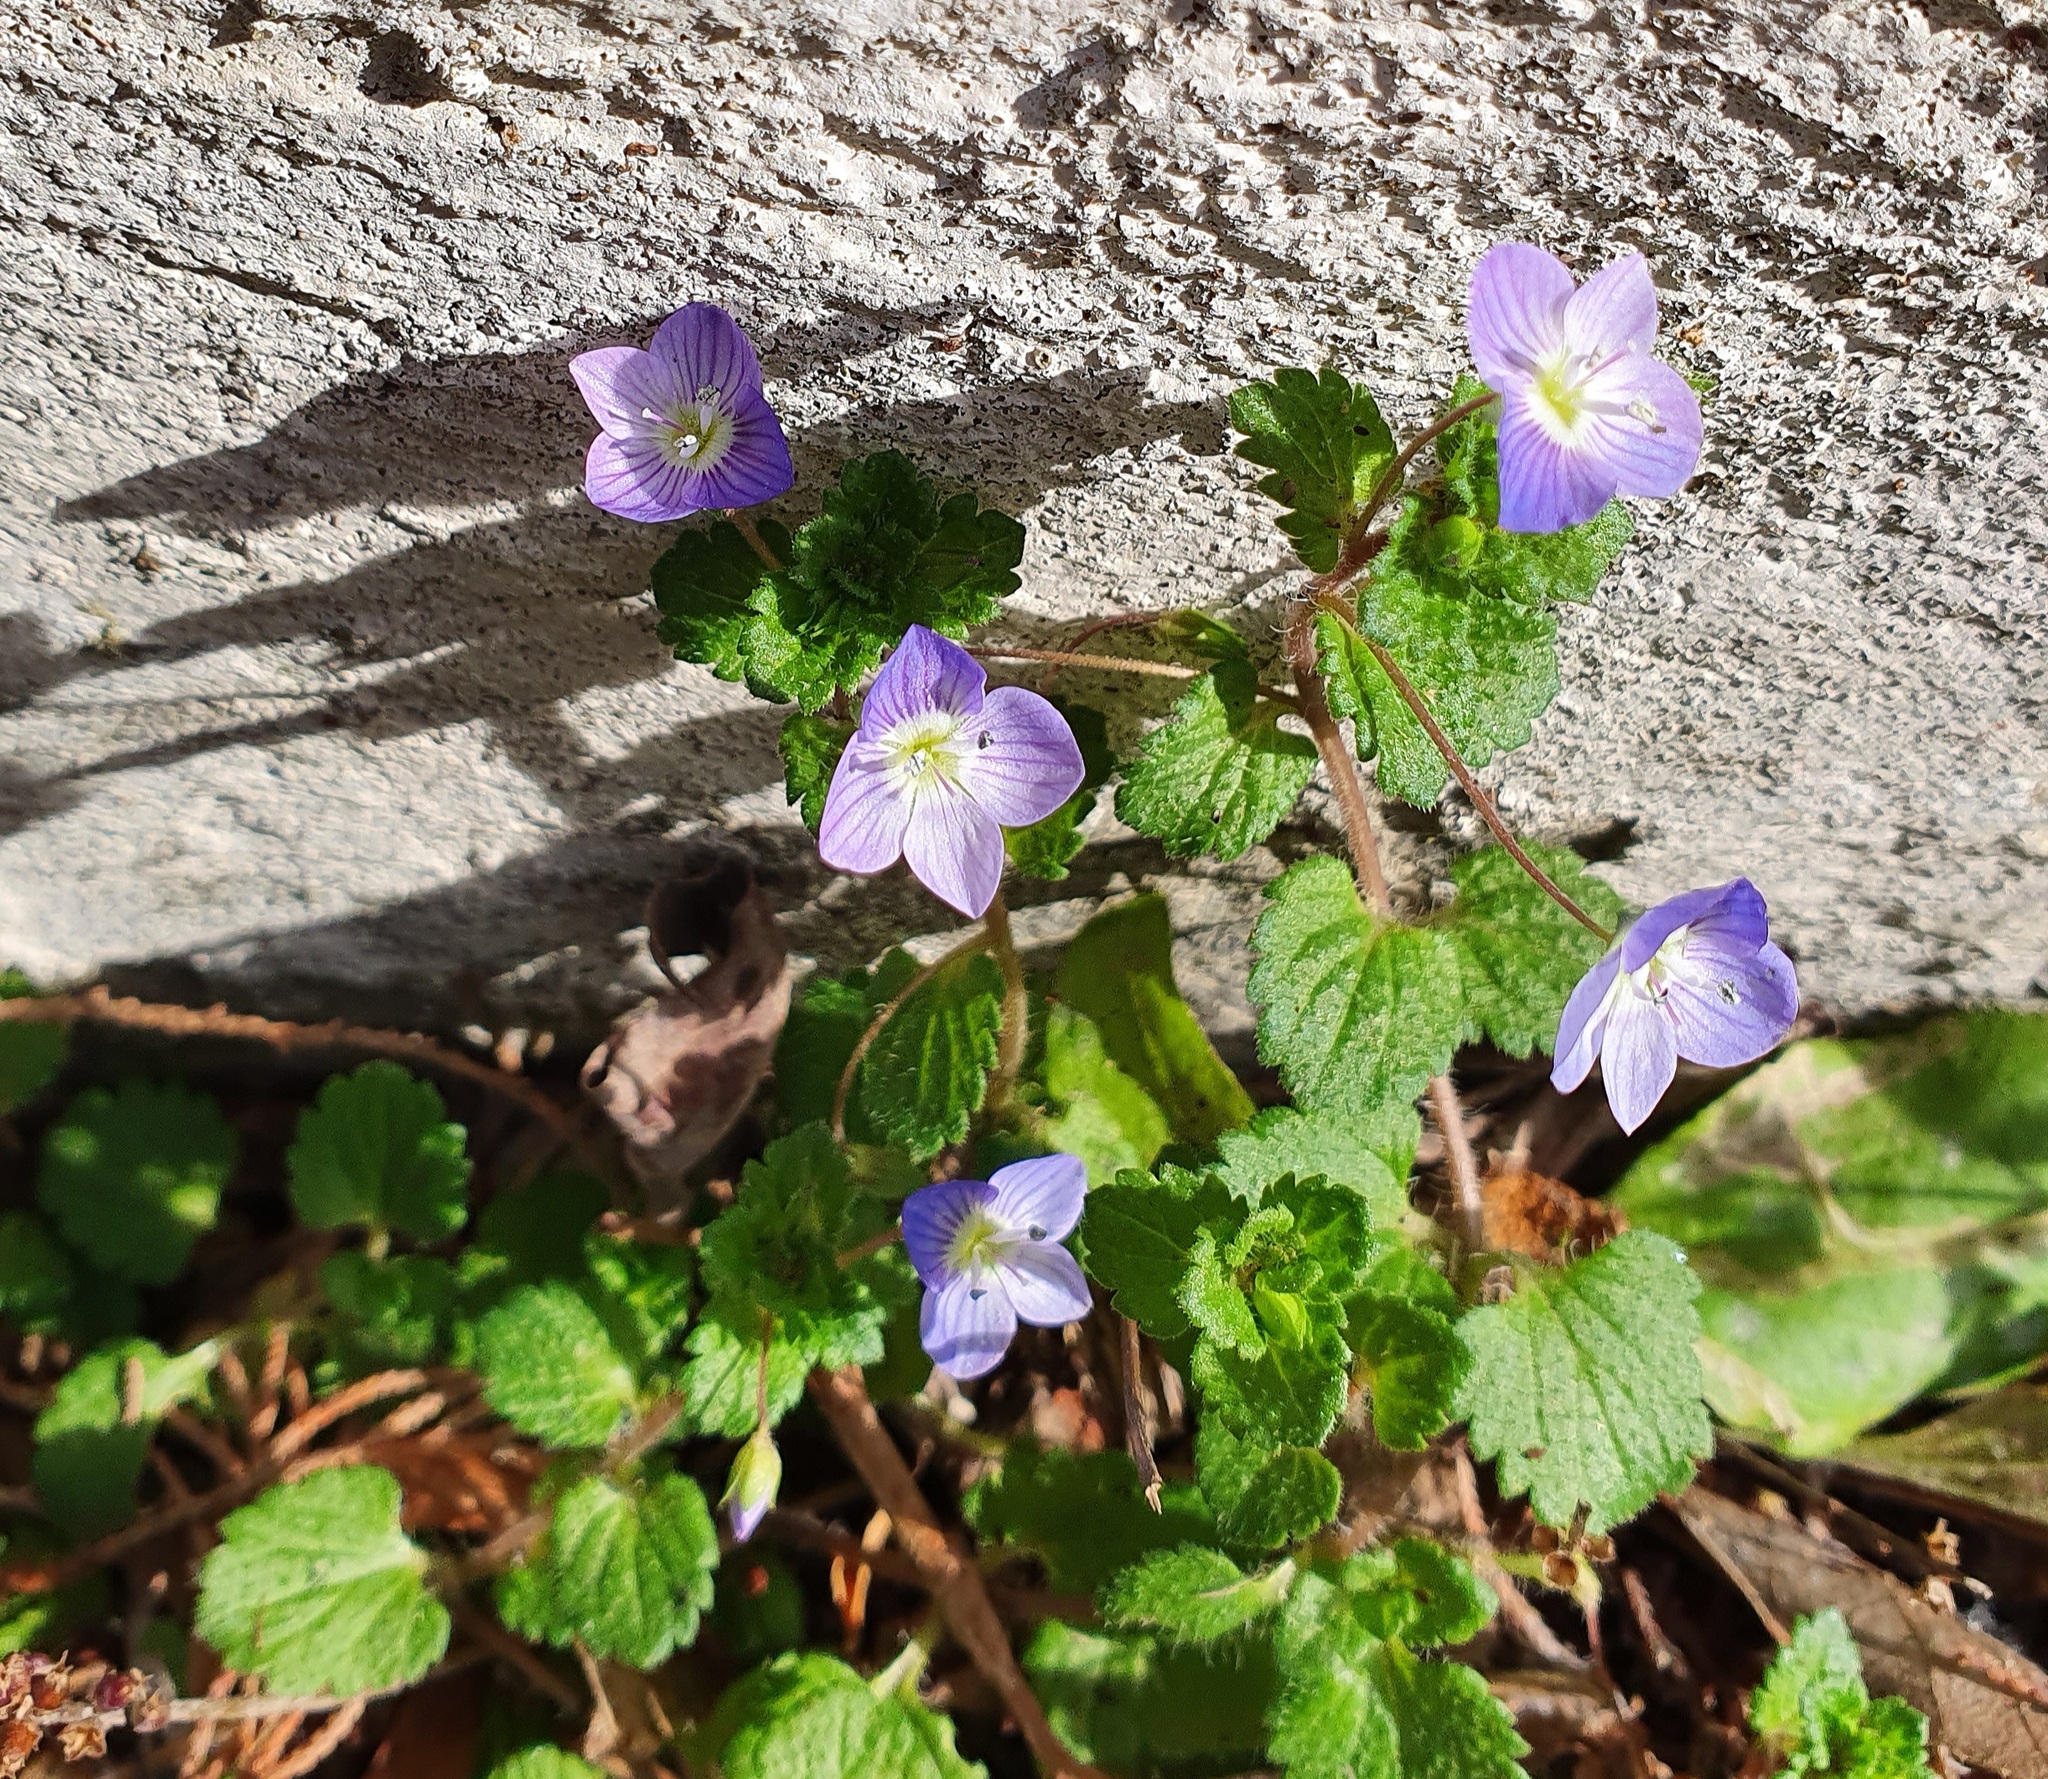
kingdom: Plantae
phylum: Tracheophyta
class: Magnoliopsida
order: Lamiales
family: Plantaginaceae
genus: Veronica
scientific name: Veronica persica
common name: Common field-speedwell
